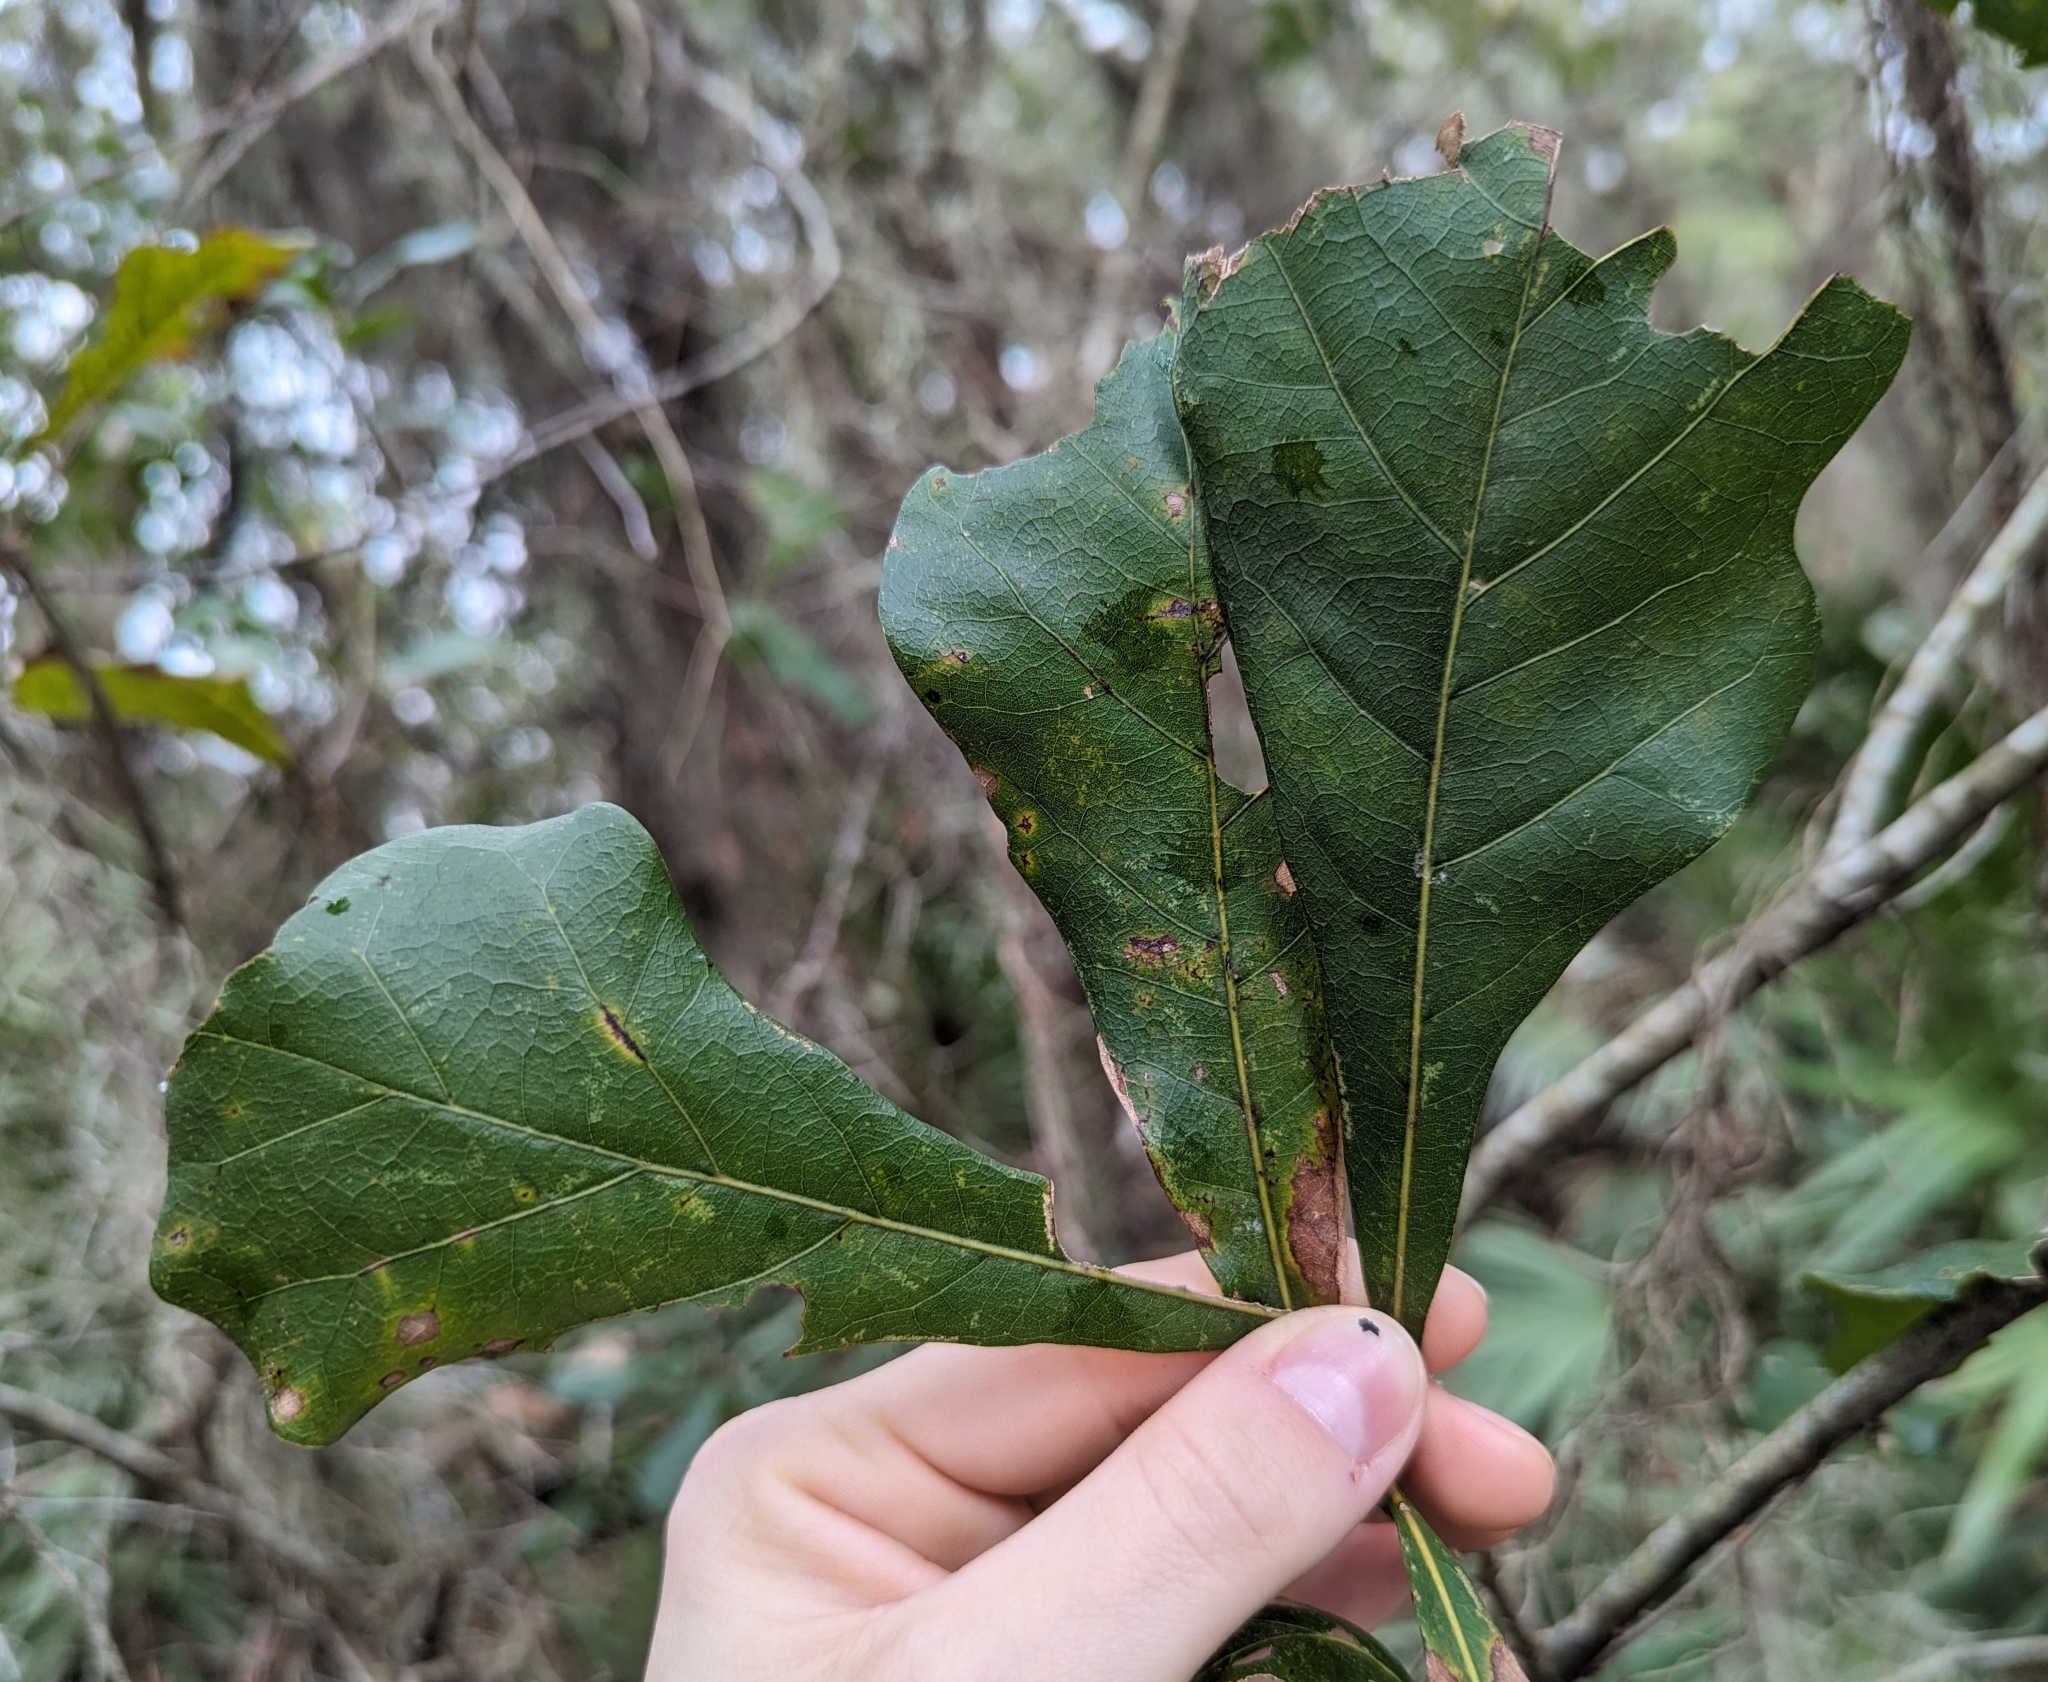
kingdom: Plantae
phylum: Tracheophyta
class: Magnoliopsida
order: Fagales
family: Fagaceae
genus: Quercus
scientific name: Quercus nigra
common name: Water oak
